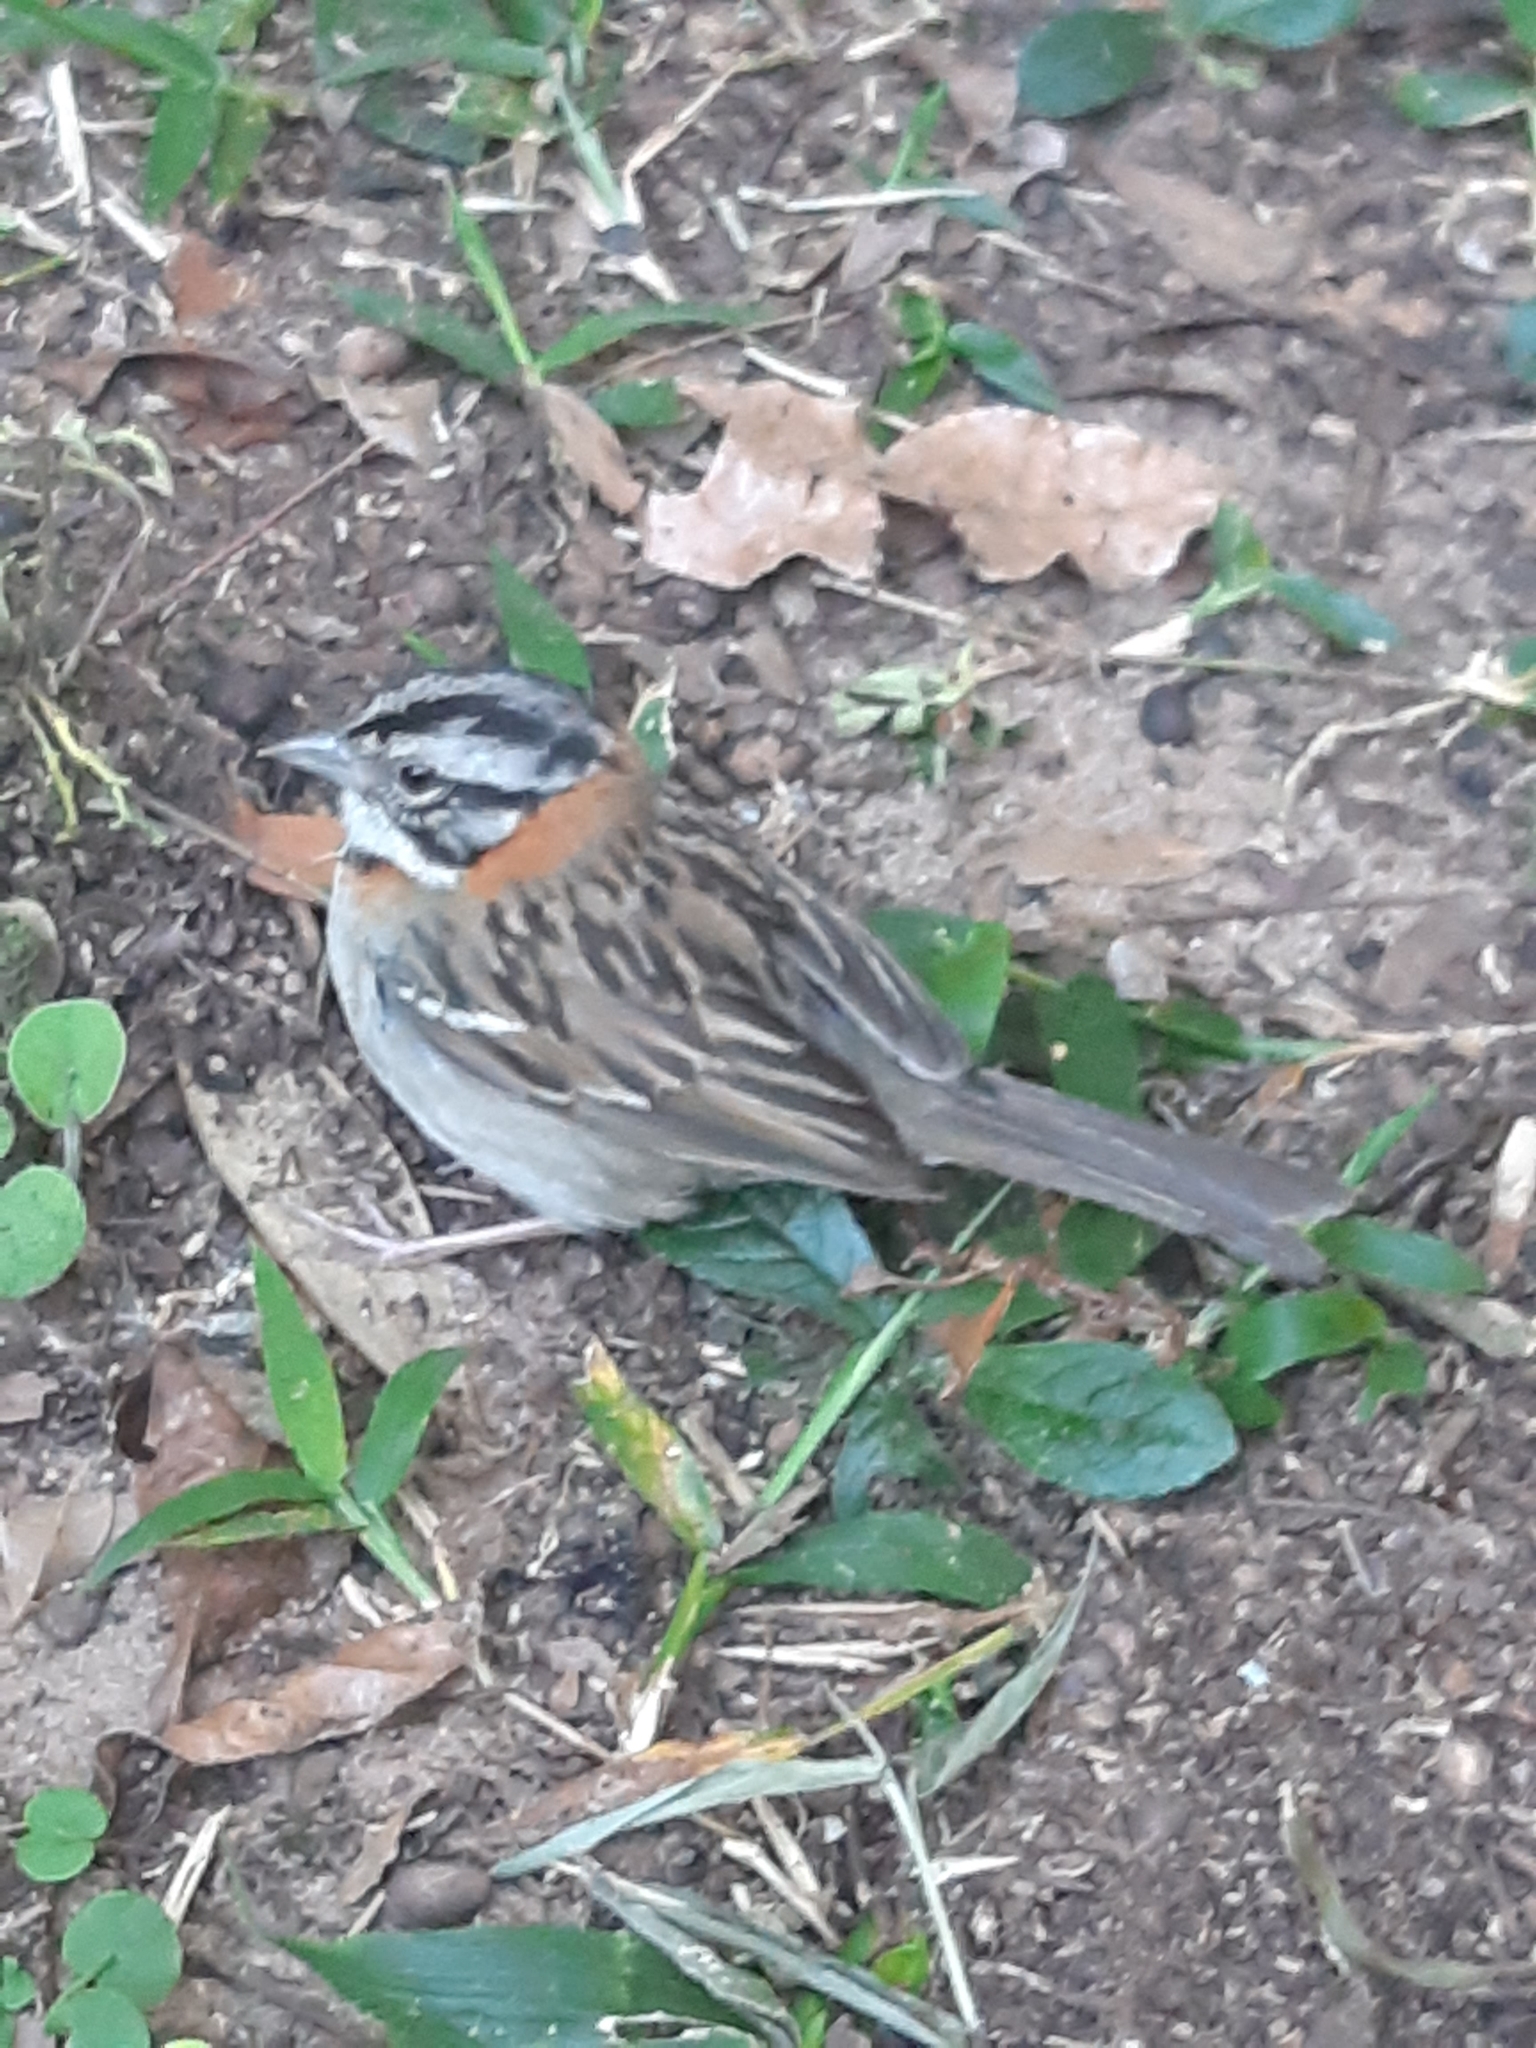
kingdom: Animalia
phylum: Chordata
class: Aves
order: Passeriformes
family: Passerellidae
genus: Zonotrichia
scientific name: Zonotrichia capensis
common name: Rufous-collared sparrow
